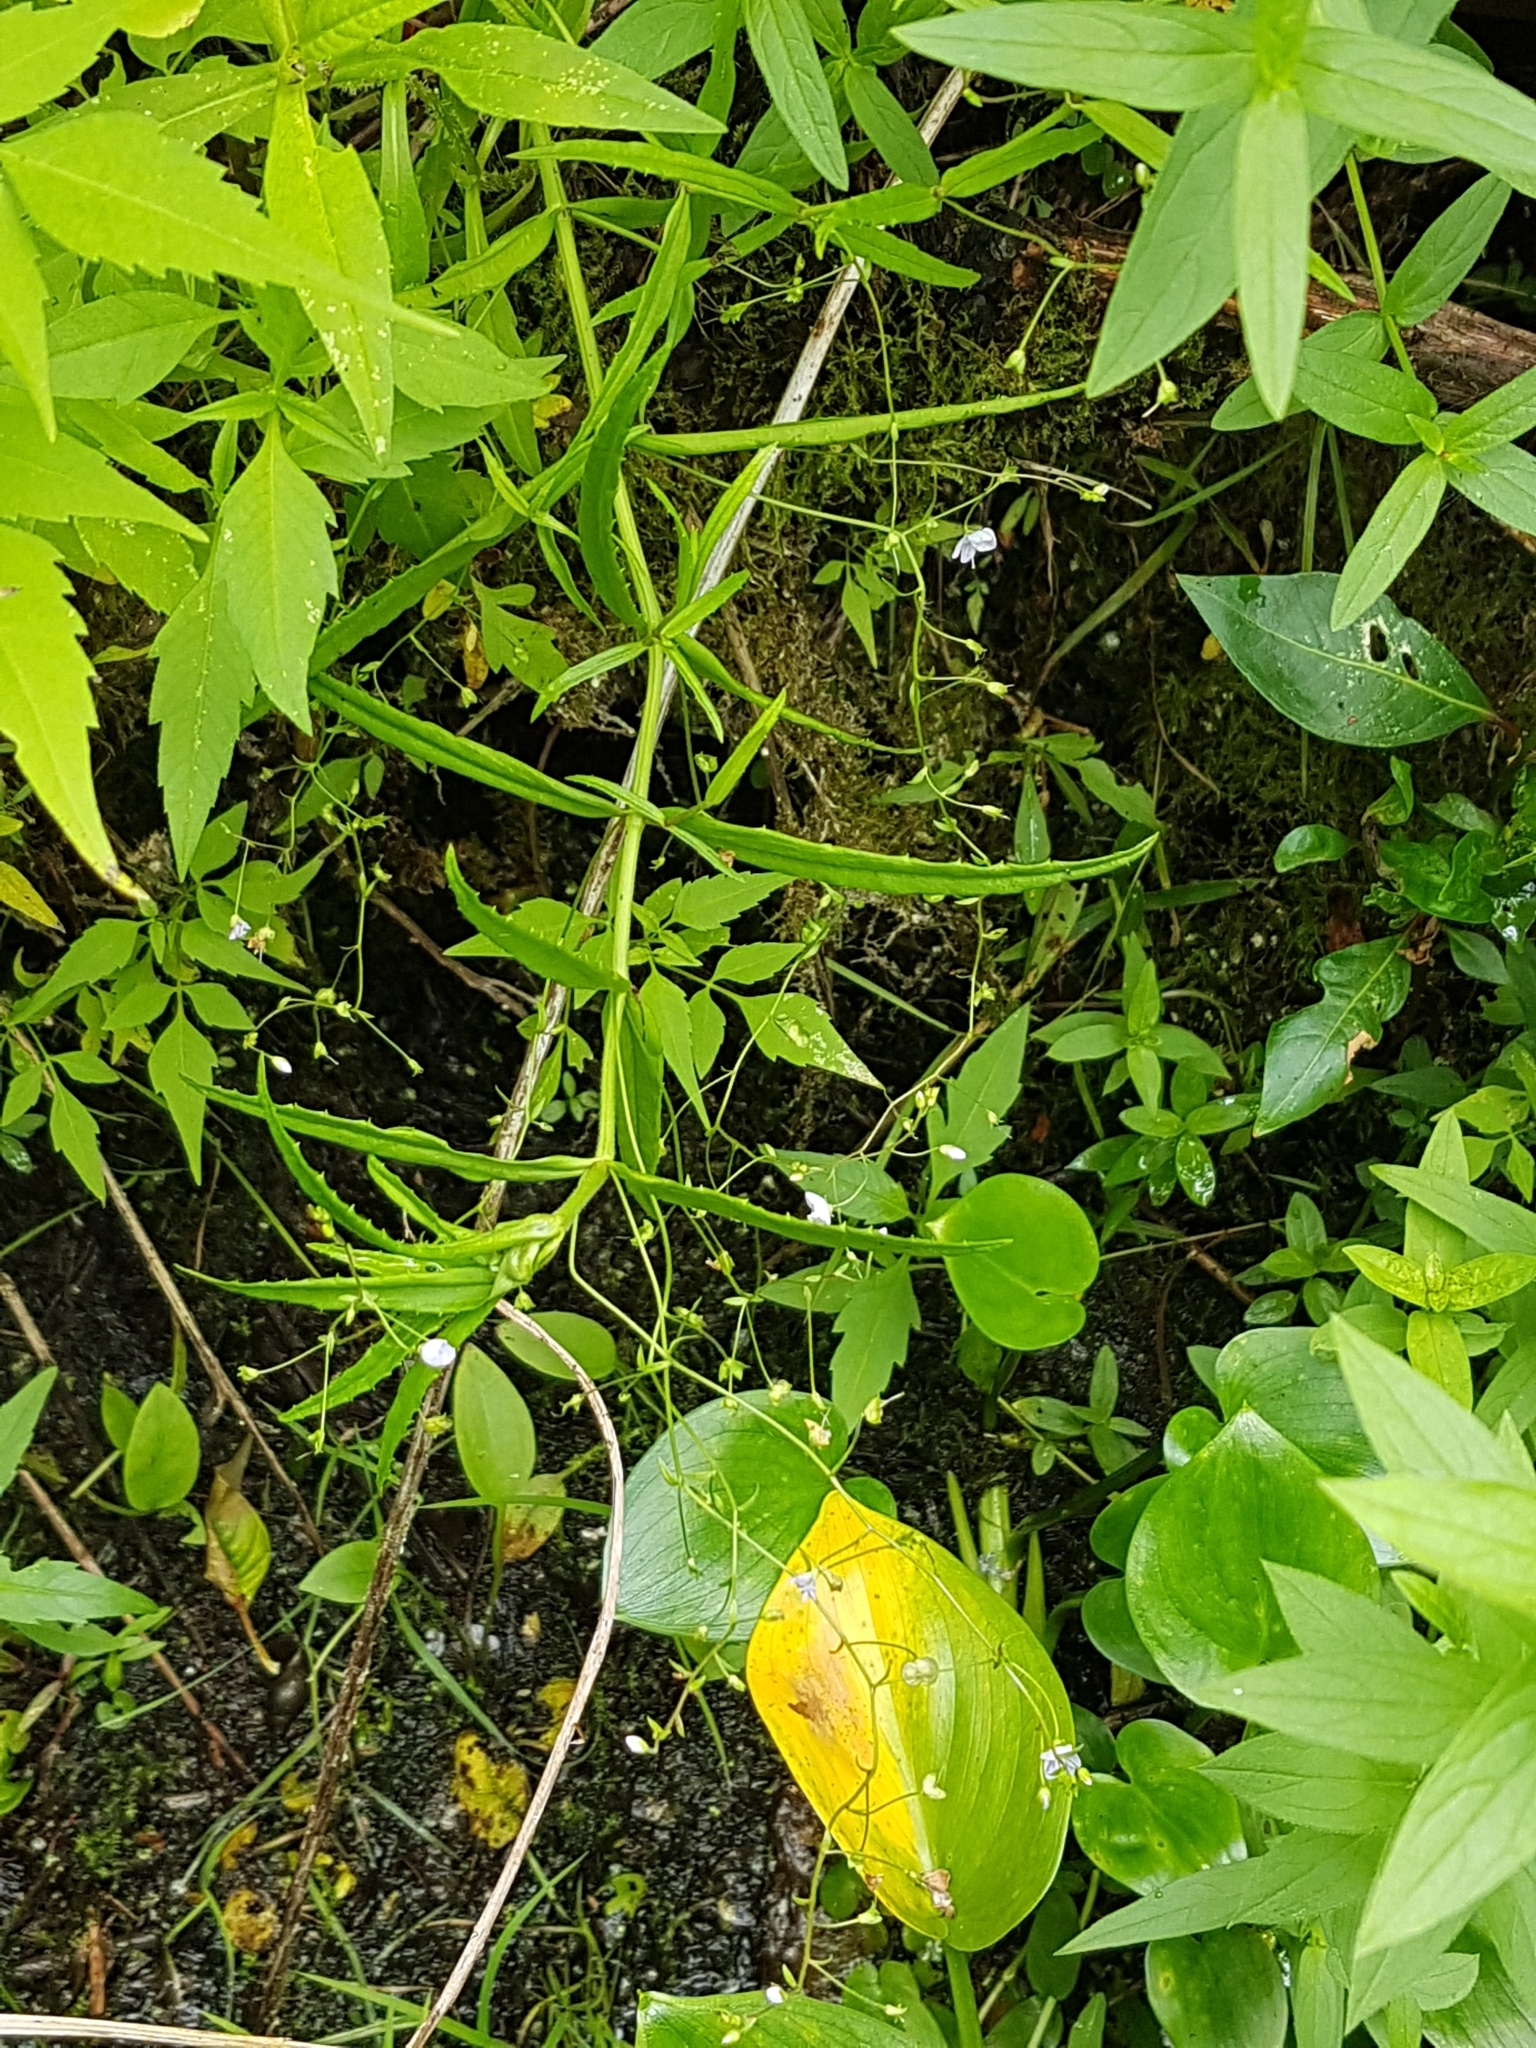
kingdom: Plantae
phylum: Tracheophyta
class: Magnoliopsida
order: Lamiales
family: Plantaginaceae
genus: Veronica
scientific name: Veronica scutellata
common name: Marsh speedwell
